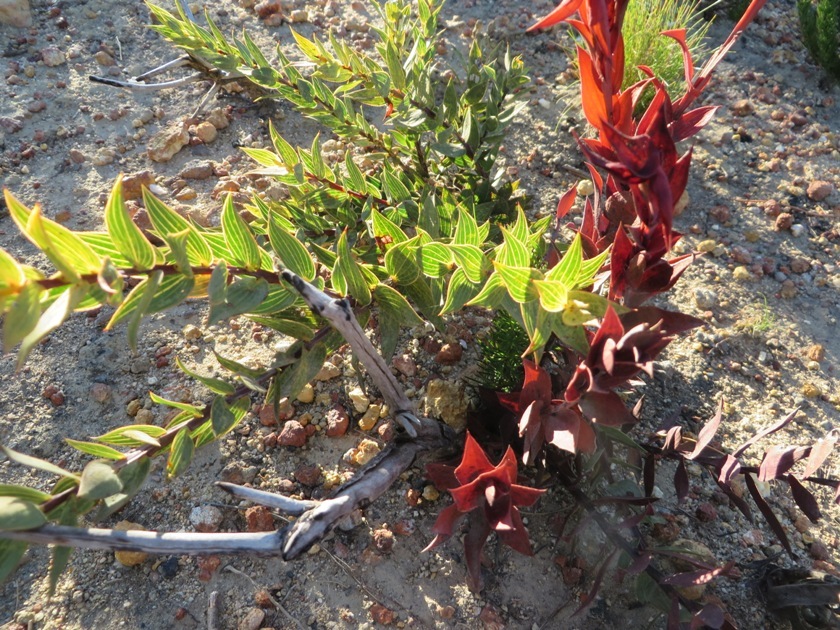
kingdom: Plantae
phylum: Tracheophyta
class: Magnoliopsida
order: Fabales
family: Fabaceae
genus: Aspalathus
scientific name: Aspalathus crenata
